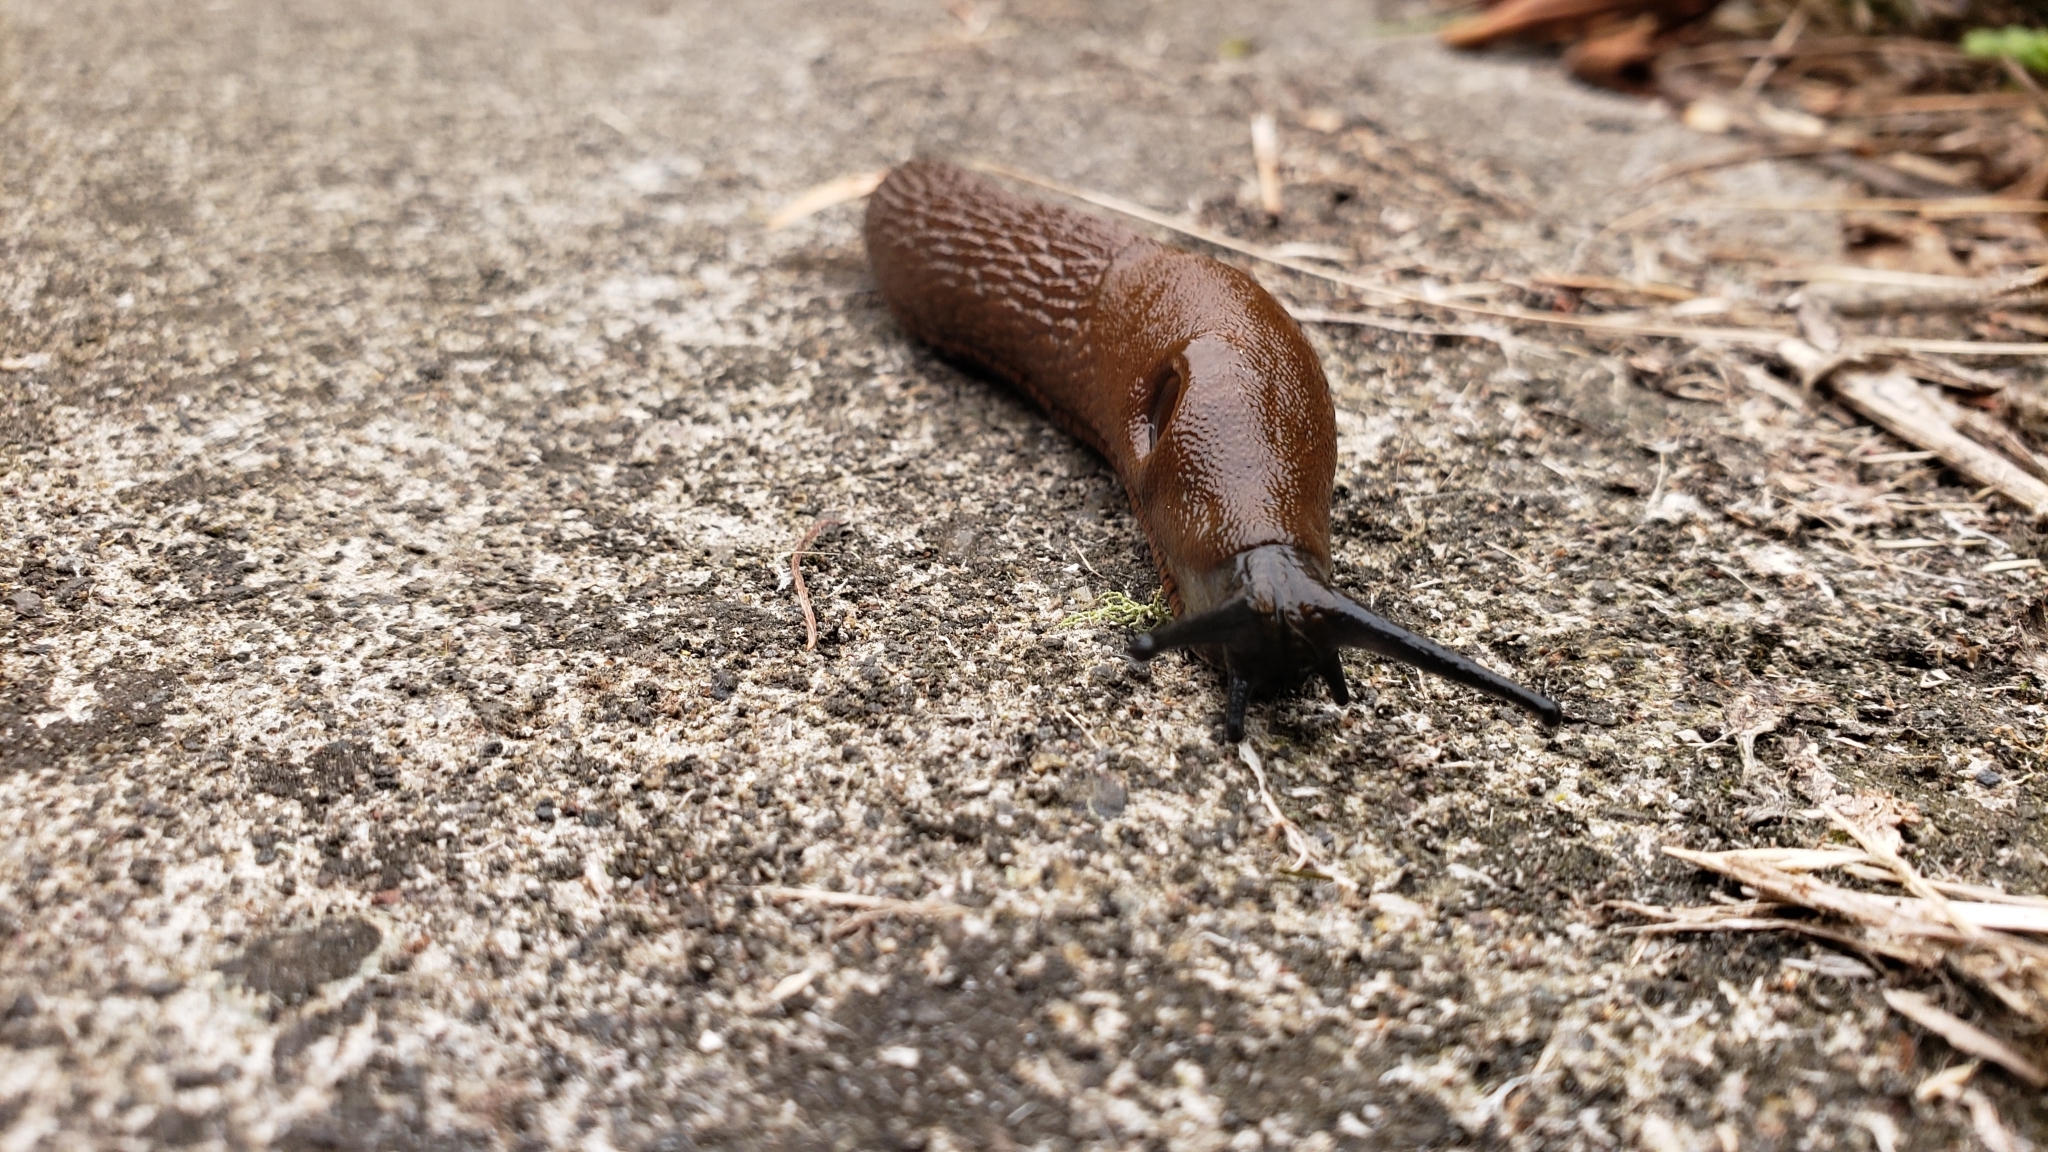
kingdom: Animalia
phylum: Mollusca
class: Gastropoda
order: Stylommatophora
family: Arionidae
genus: Arion
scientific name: Arion
